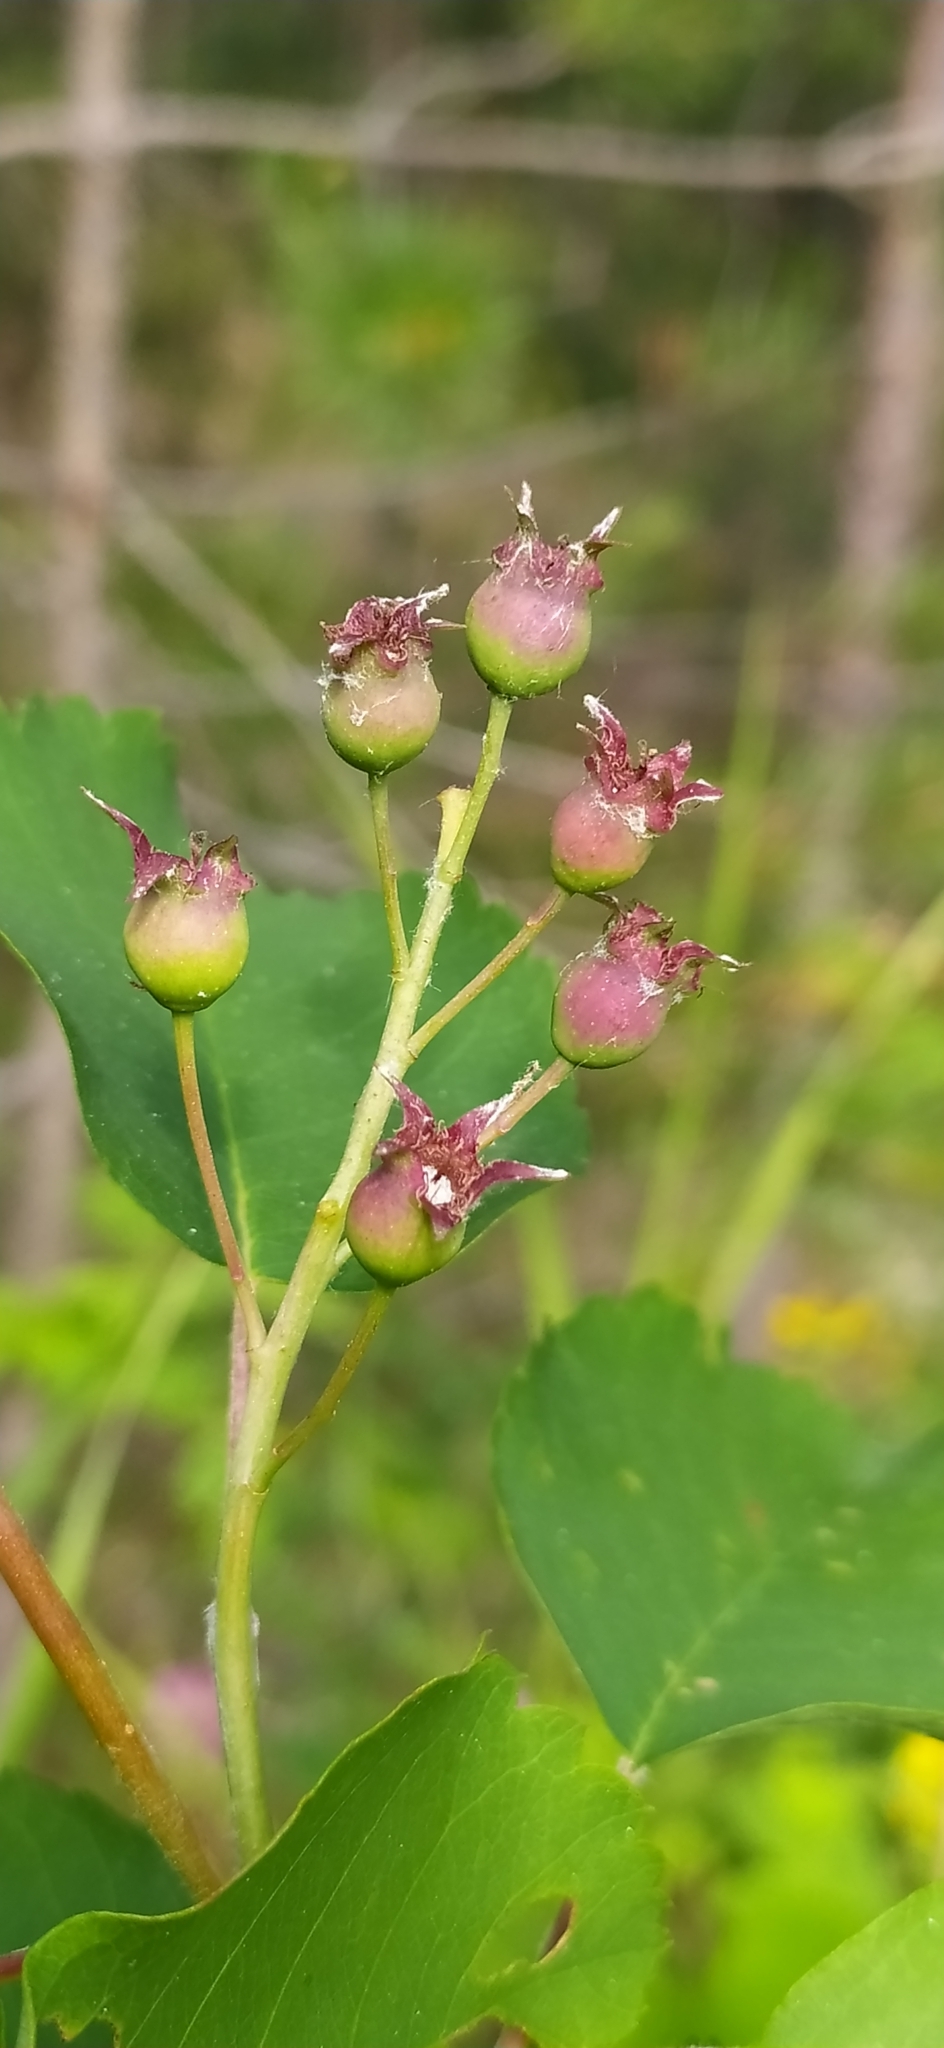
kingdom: Plantae
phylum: Tracheophyta
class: Magnoliopsida
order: Rosales
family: Rosaceae
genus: Amelanchier
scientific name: Amelanchier alnifolia
